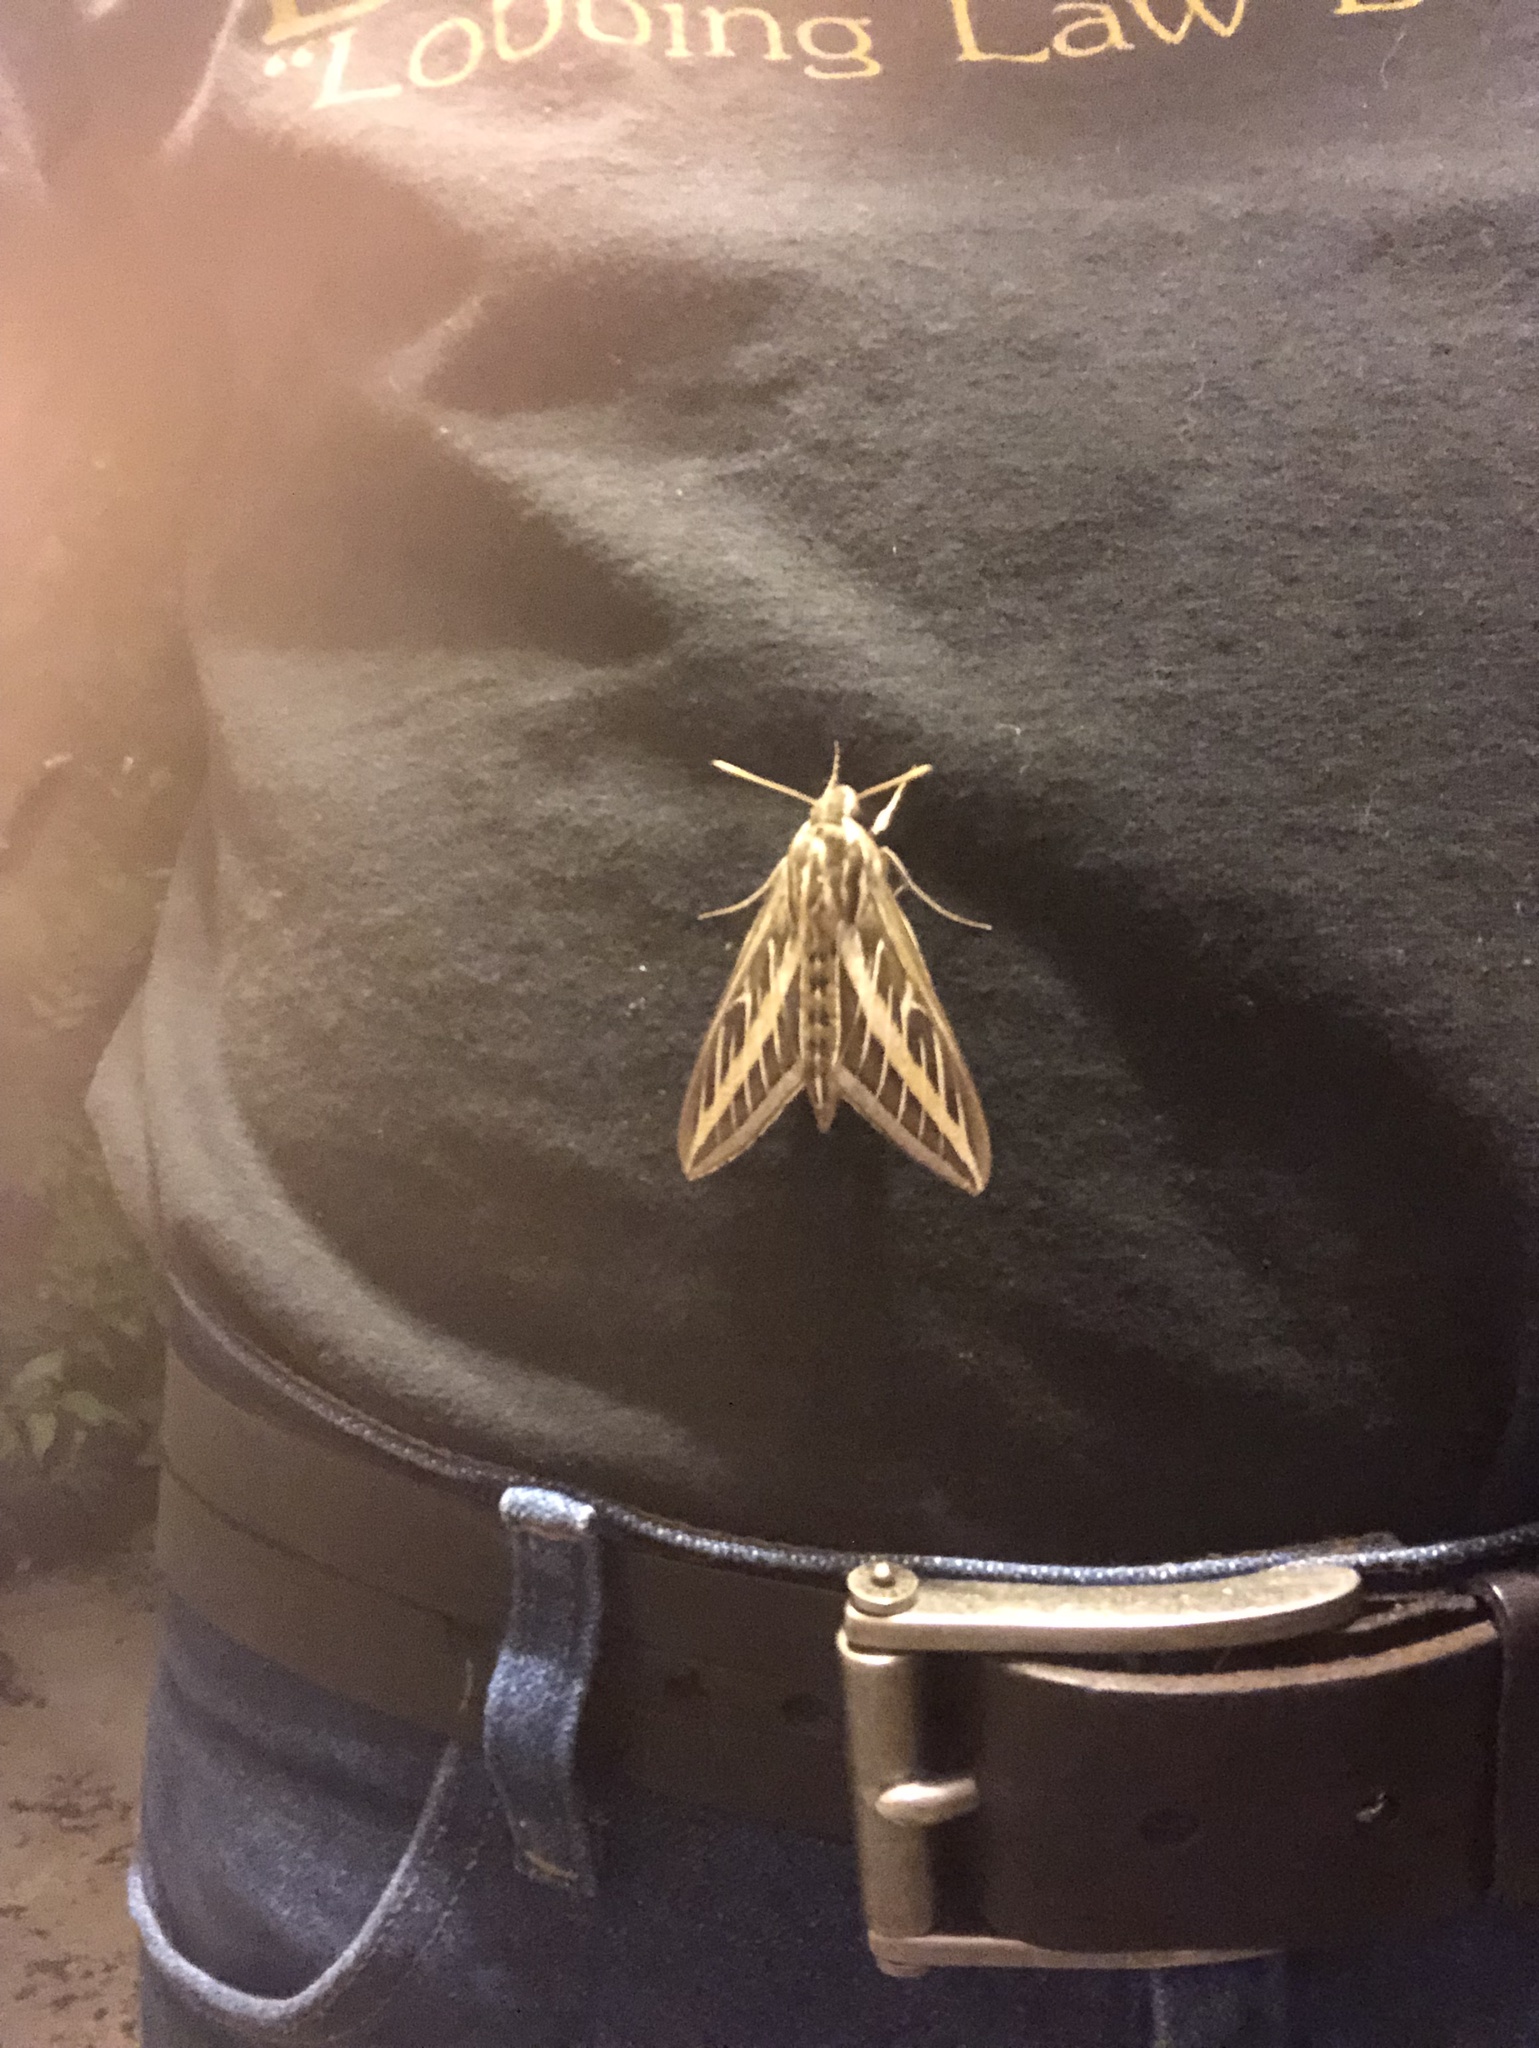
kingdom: Animalia
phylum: Arthropoda
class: Insecta
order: Lepidoptera
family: Sphingidae
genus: Hyles
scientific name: Hyles lineata
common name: White-lined sphinx
